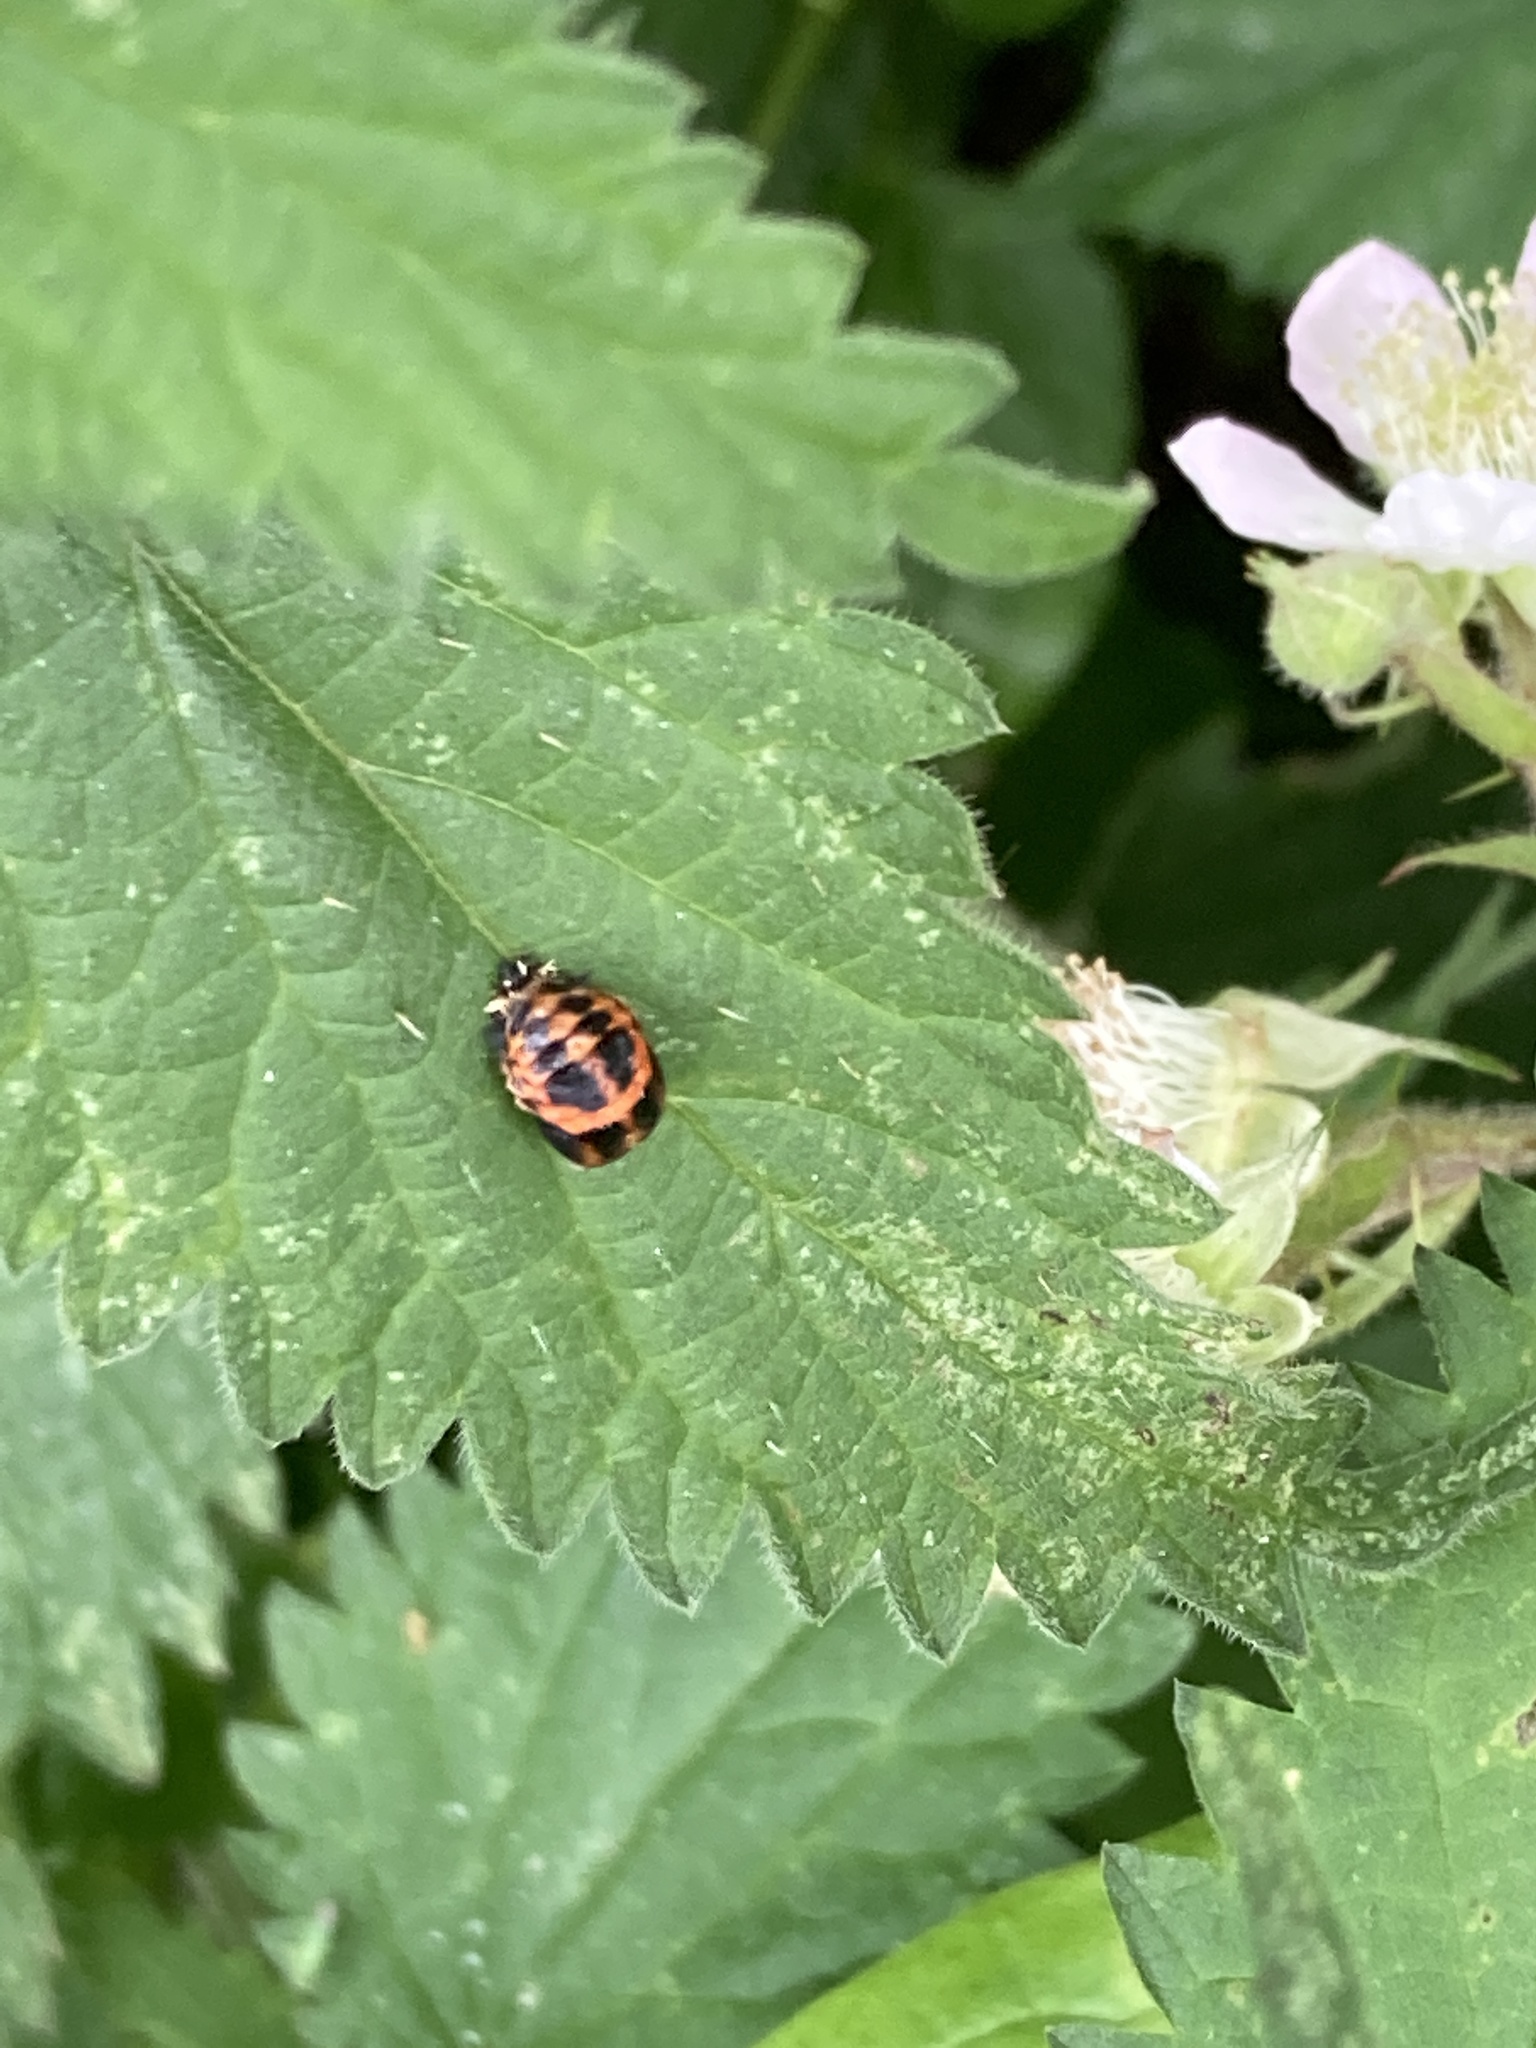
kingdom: Animalia
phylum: Arthropoda
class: Insecta
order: Coleoptera
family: Coccinellidae
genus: Harmonia
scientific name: Harmonia axyridis
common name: Harlequin ladybird
